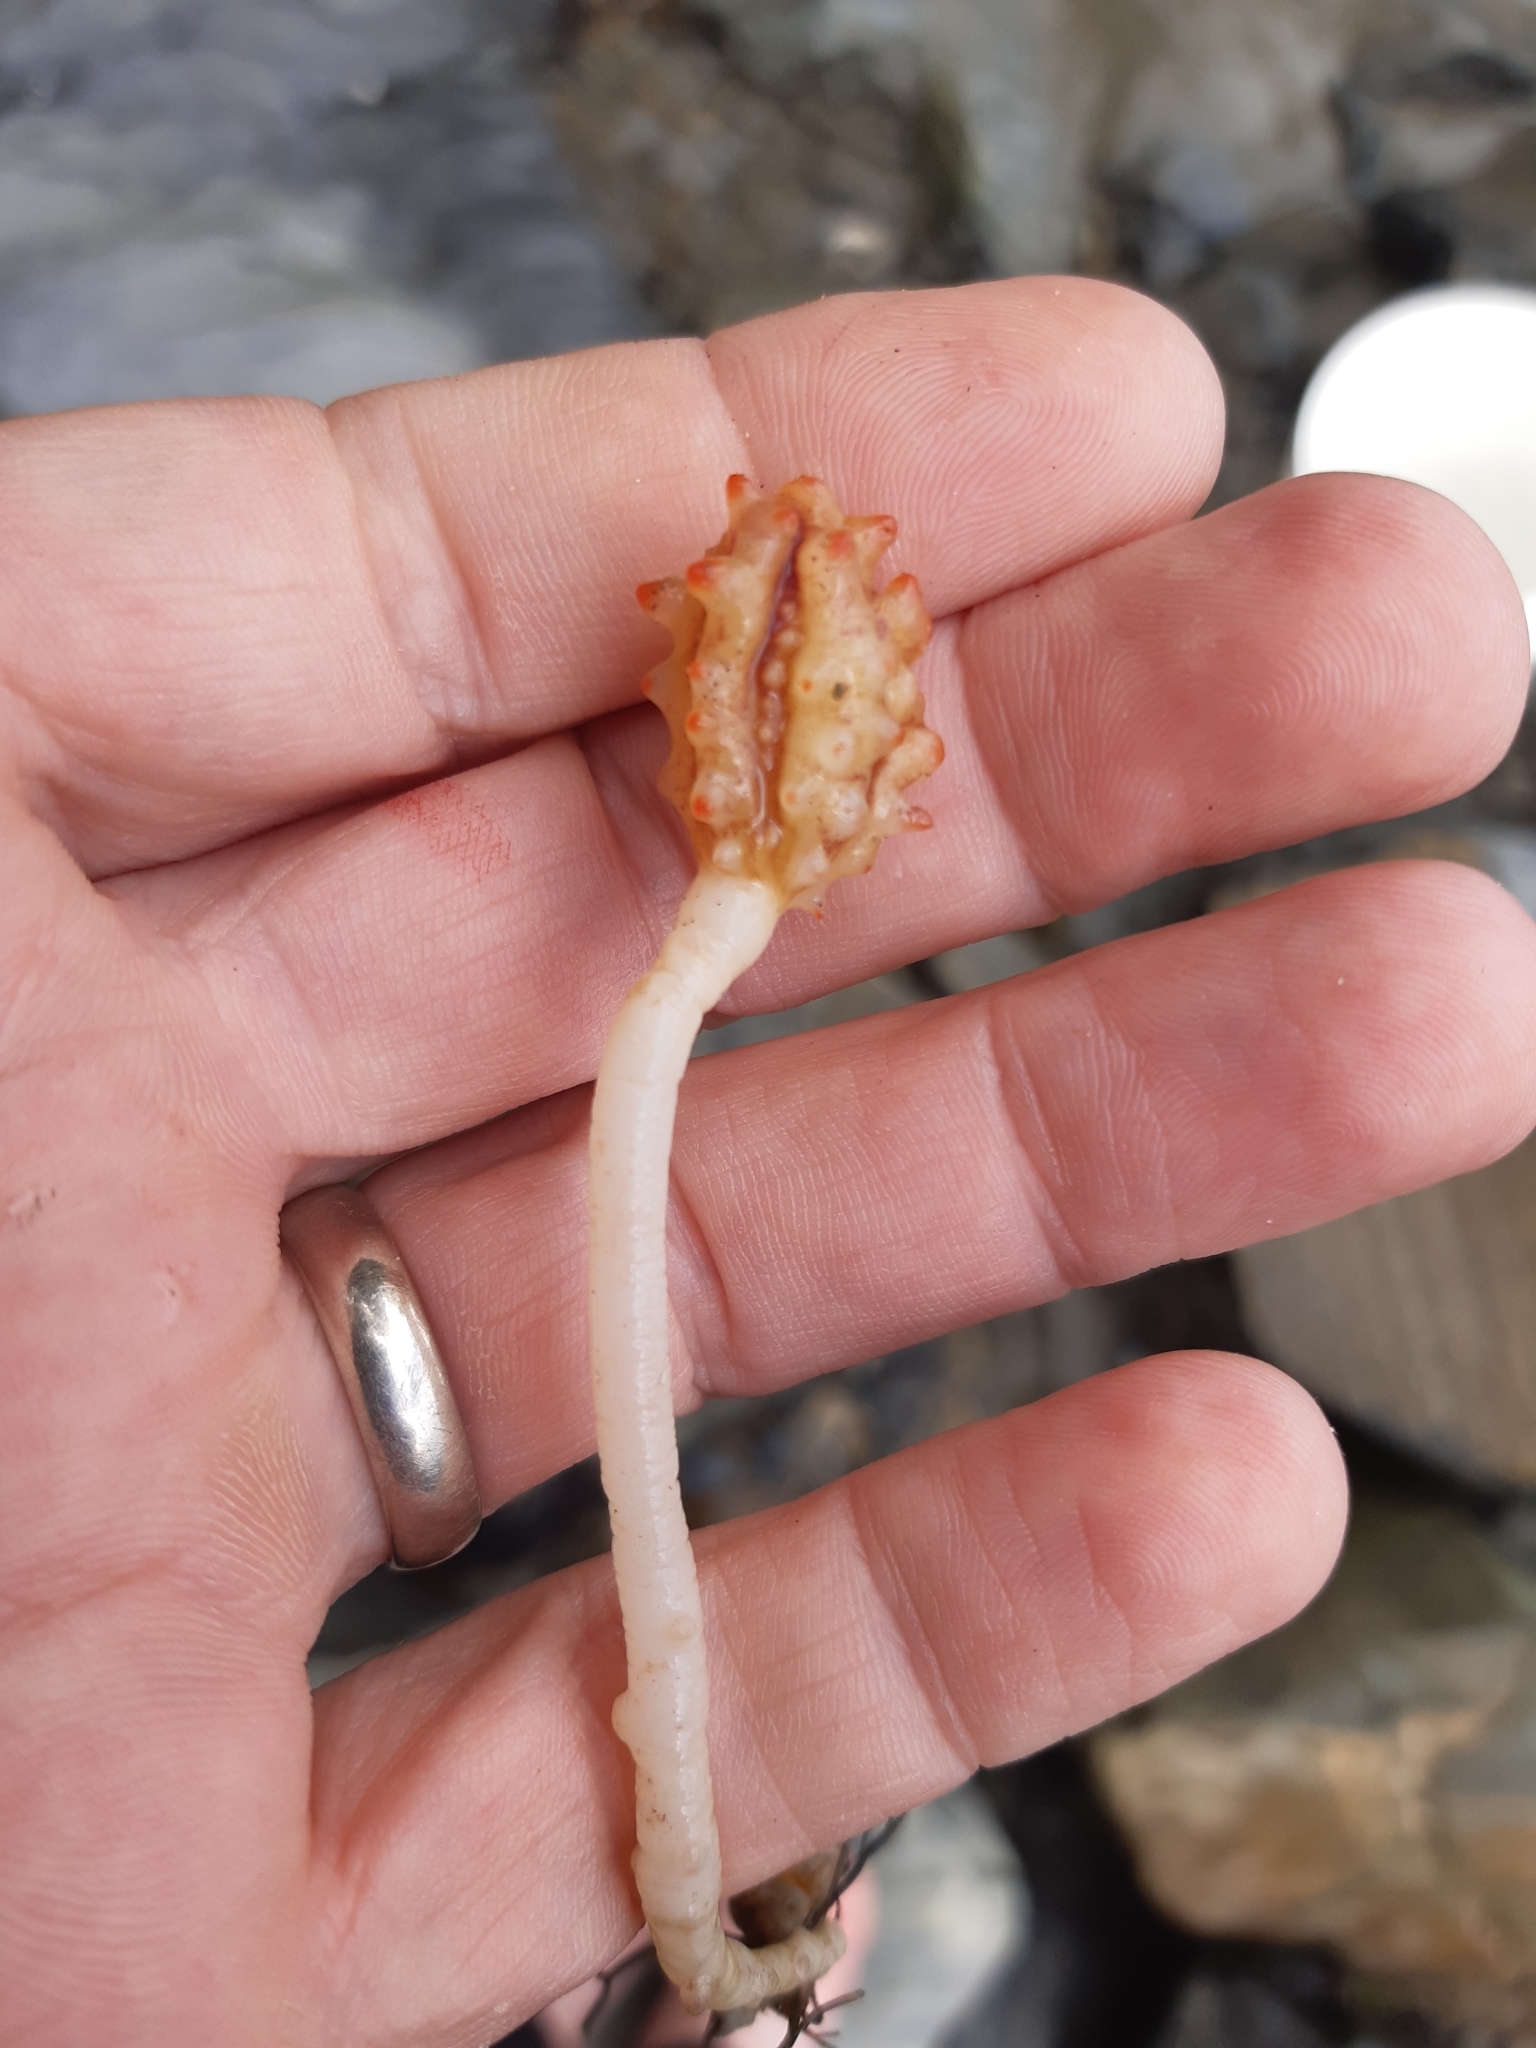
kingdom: Animalia
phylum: Chordata
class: Ascidiacea
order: Stolidobranchia
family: Pyuridae
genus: Pyura
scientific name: Pyura pachydermatina
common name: Sea tulip
